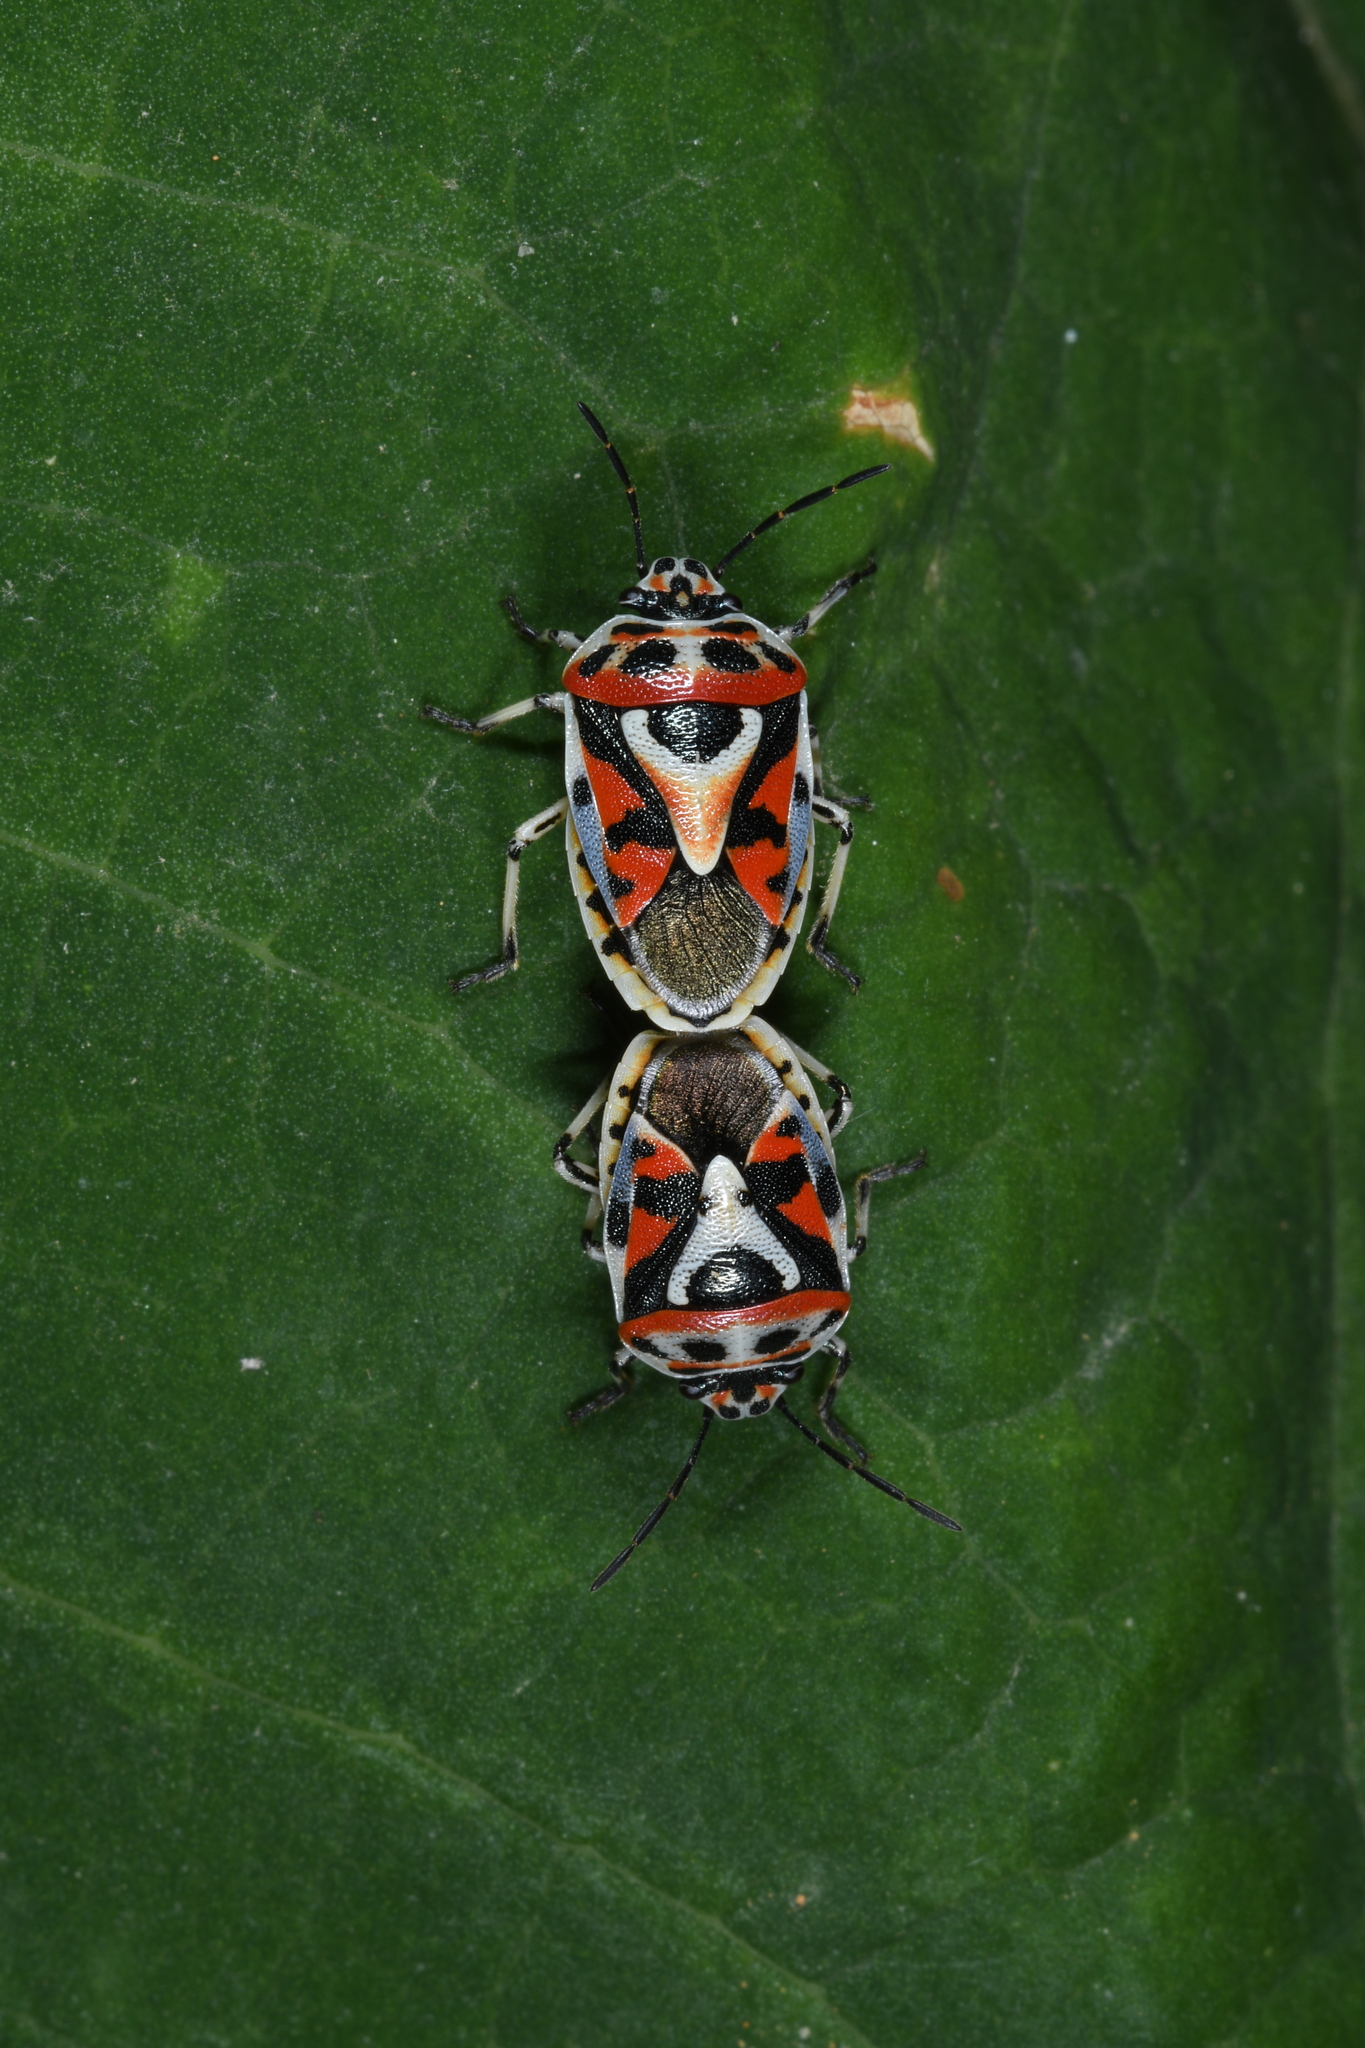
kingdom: Animalia
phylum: Arthropoda
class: Insecta
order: Hemiptera
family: Pentatomidae
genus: Eurydema
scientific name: Eurydema ornata
